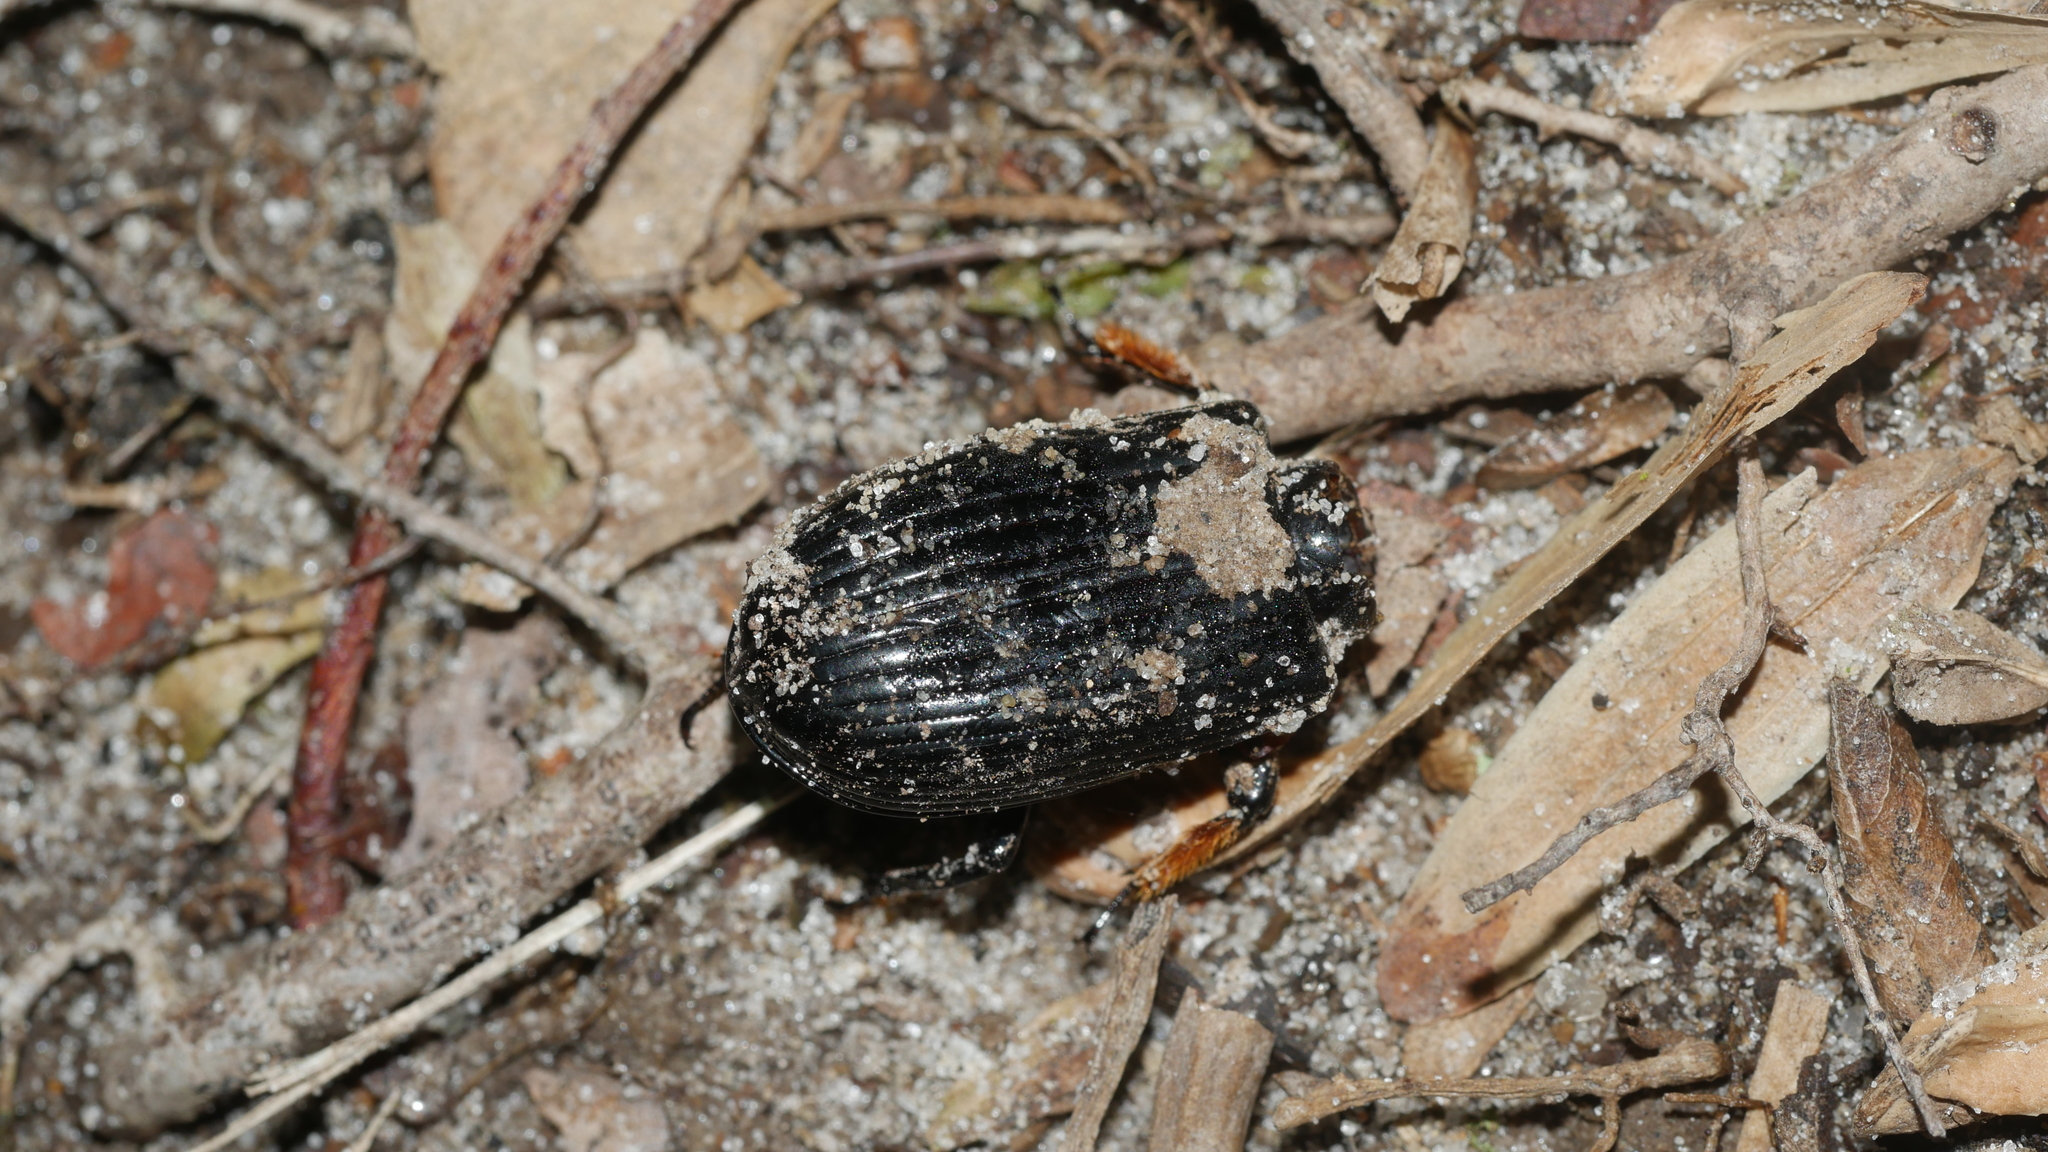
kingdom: Animalia
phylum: Arthropoda
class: Insecta
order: Coleoptera
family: Passalidae
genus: Odontotaenius
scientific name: Odontotaenius disjunctus
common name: Patent leather beetle
